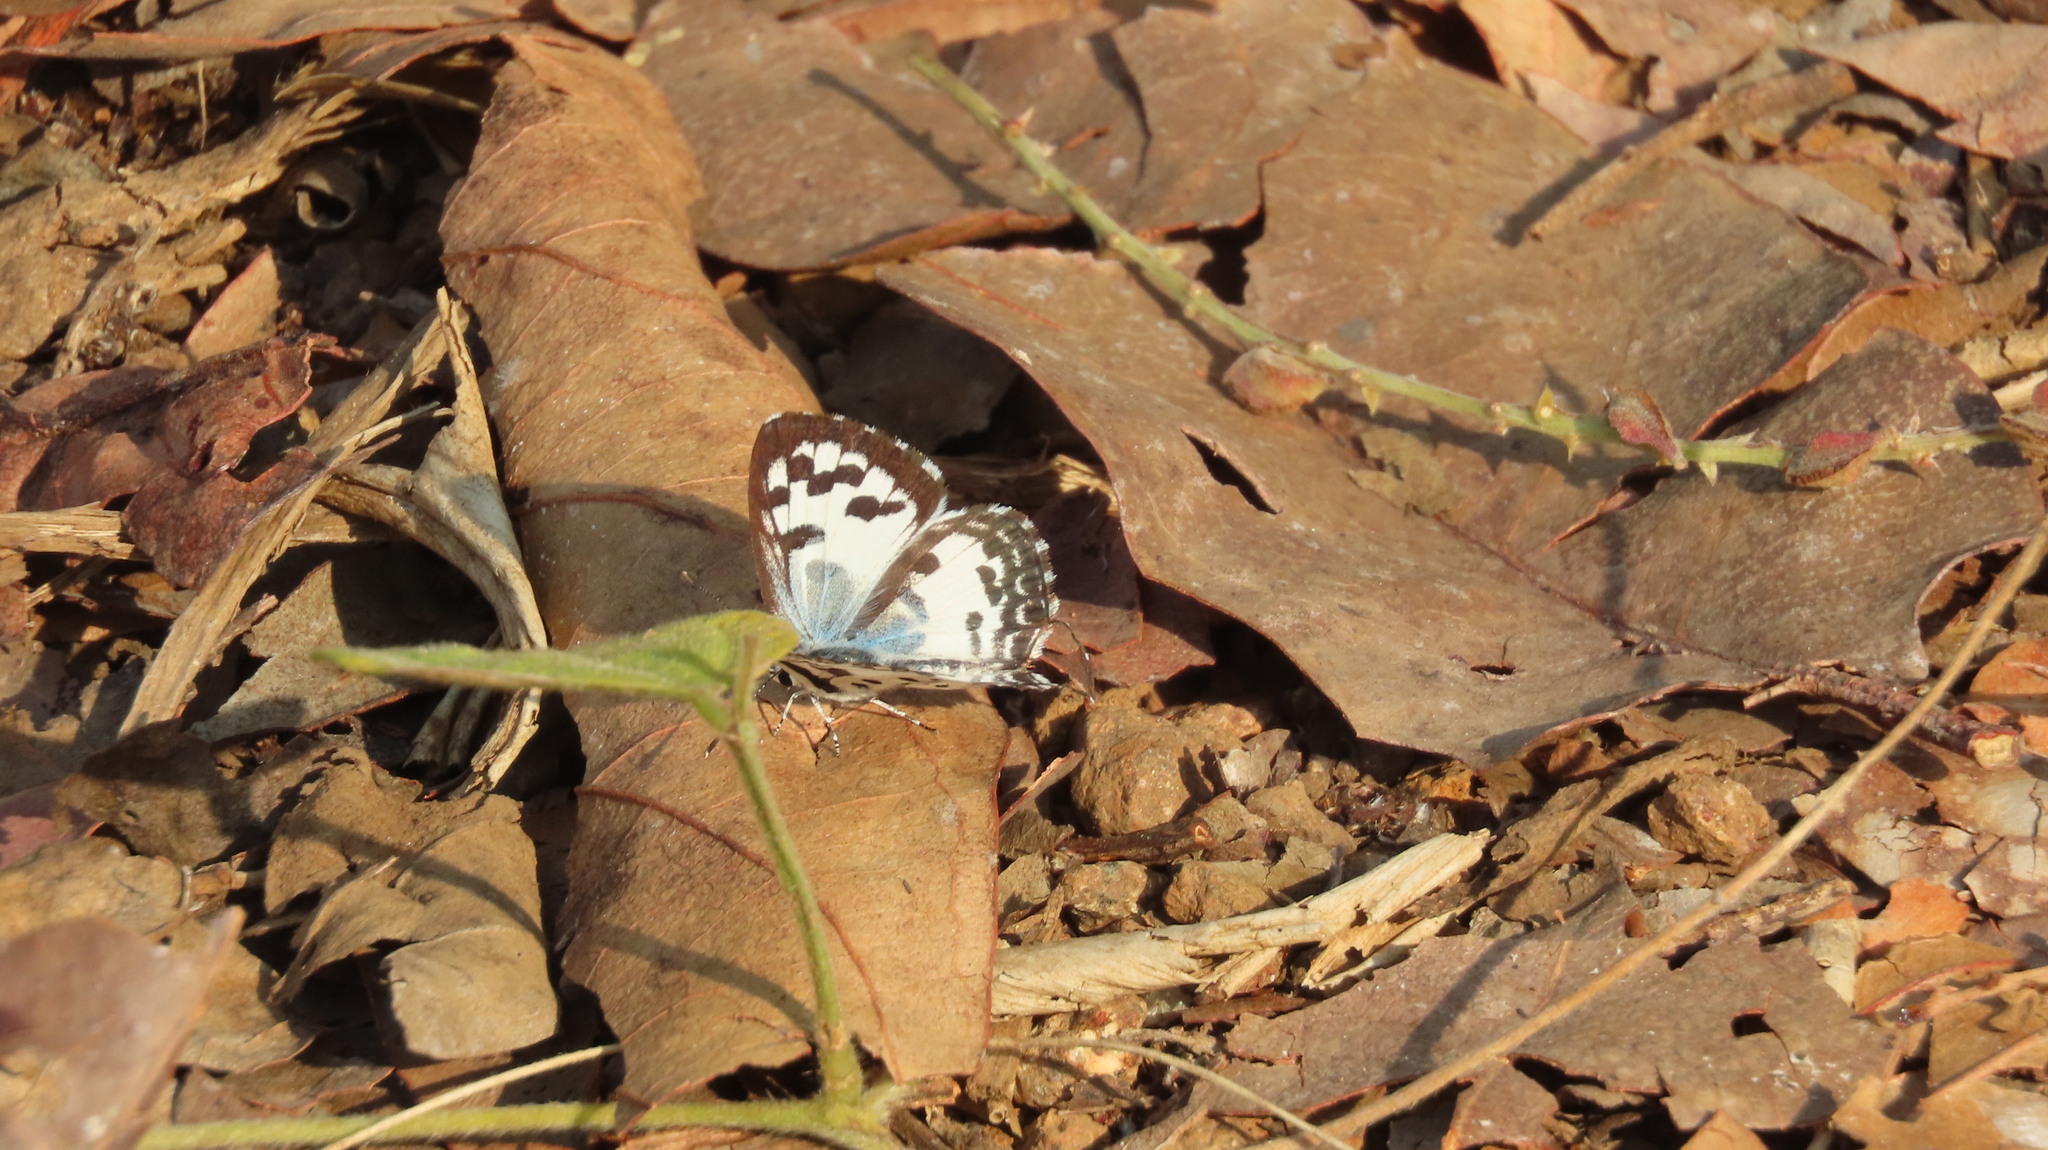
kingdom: Animalia
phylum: Arthropoda
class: Insecta
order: Lepidoptera
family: Lycaenidae
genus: Castalius
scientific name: Castalius rosimon
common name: Common pierrot
